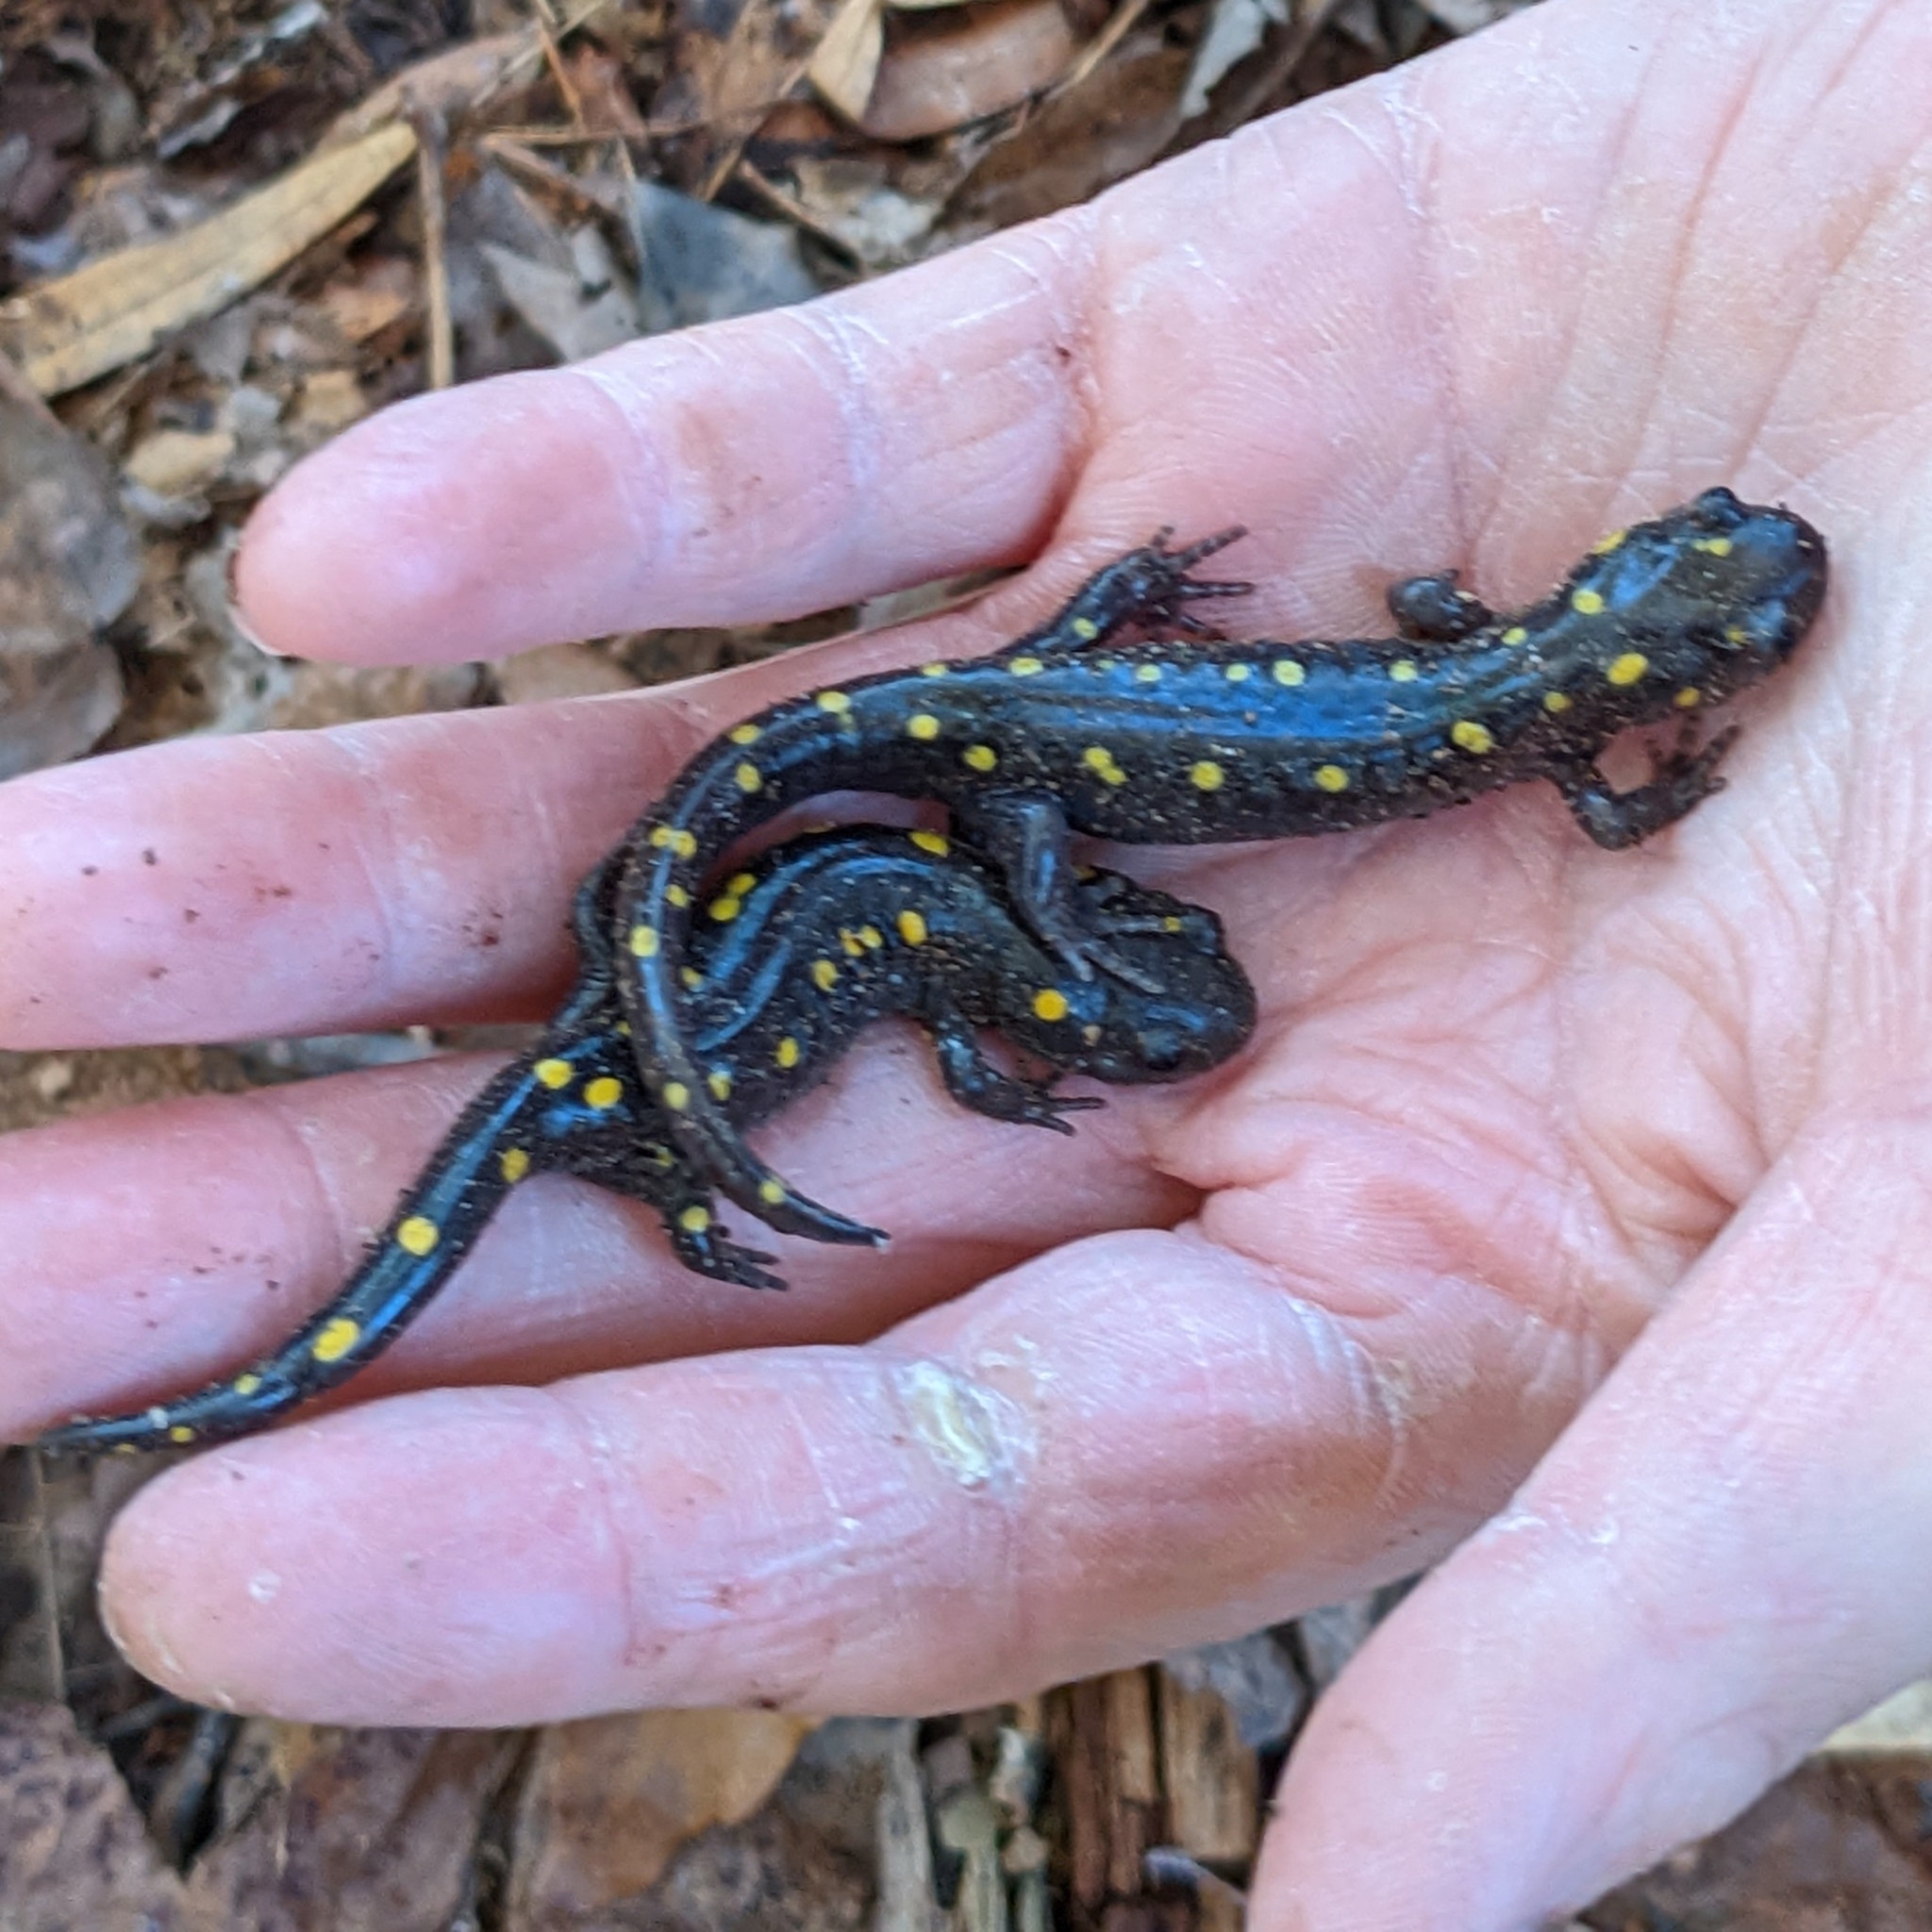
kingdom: Animalia
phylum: Chordata
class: Amphibia
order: Caudata
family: Ambystomatidae
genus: Ambystoma
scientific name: Ambystoma maculatum
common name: Spotted salamander
